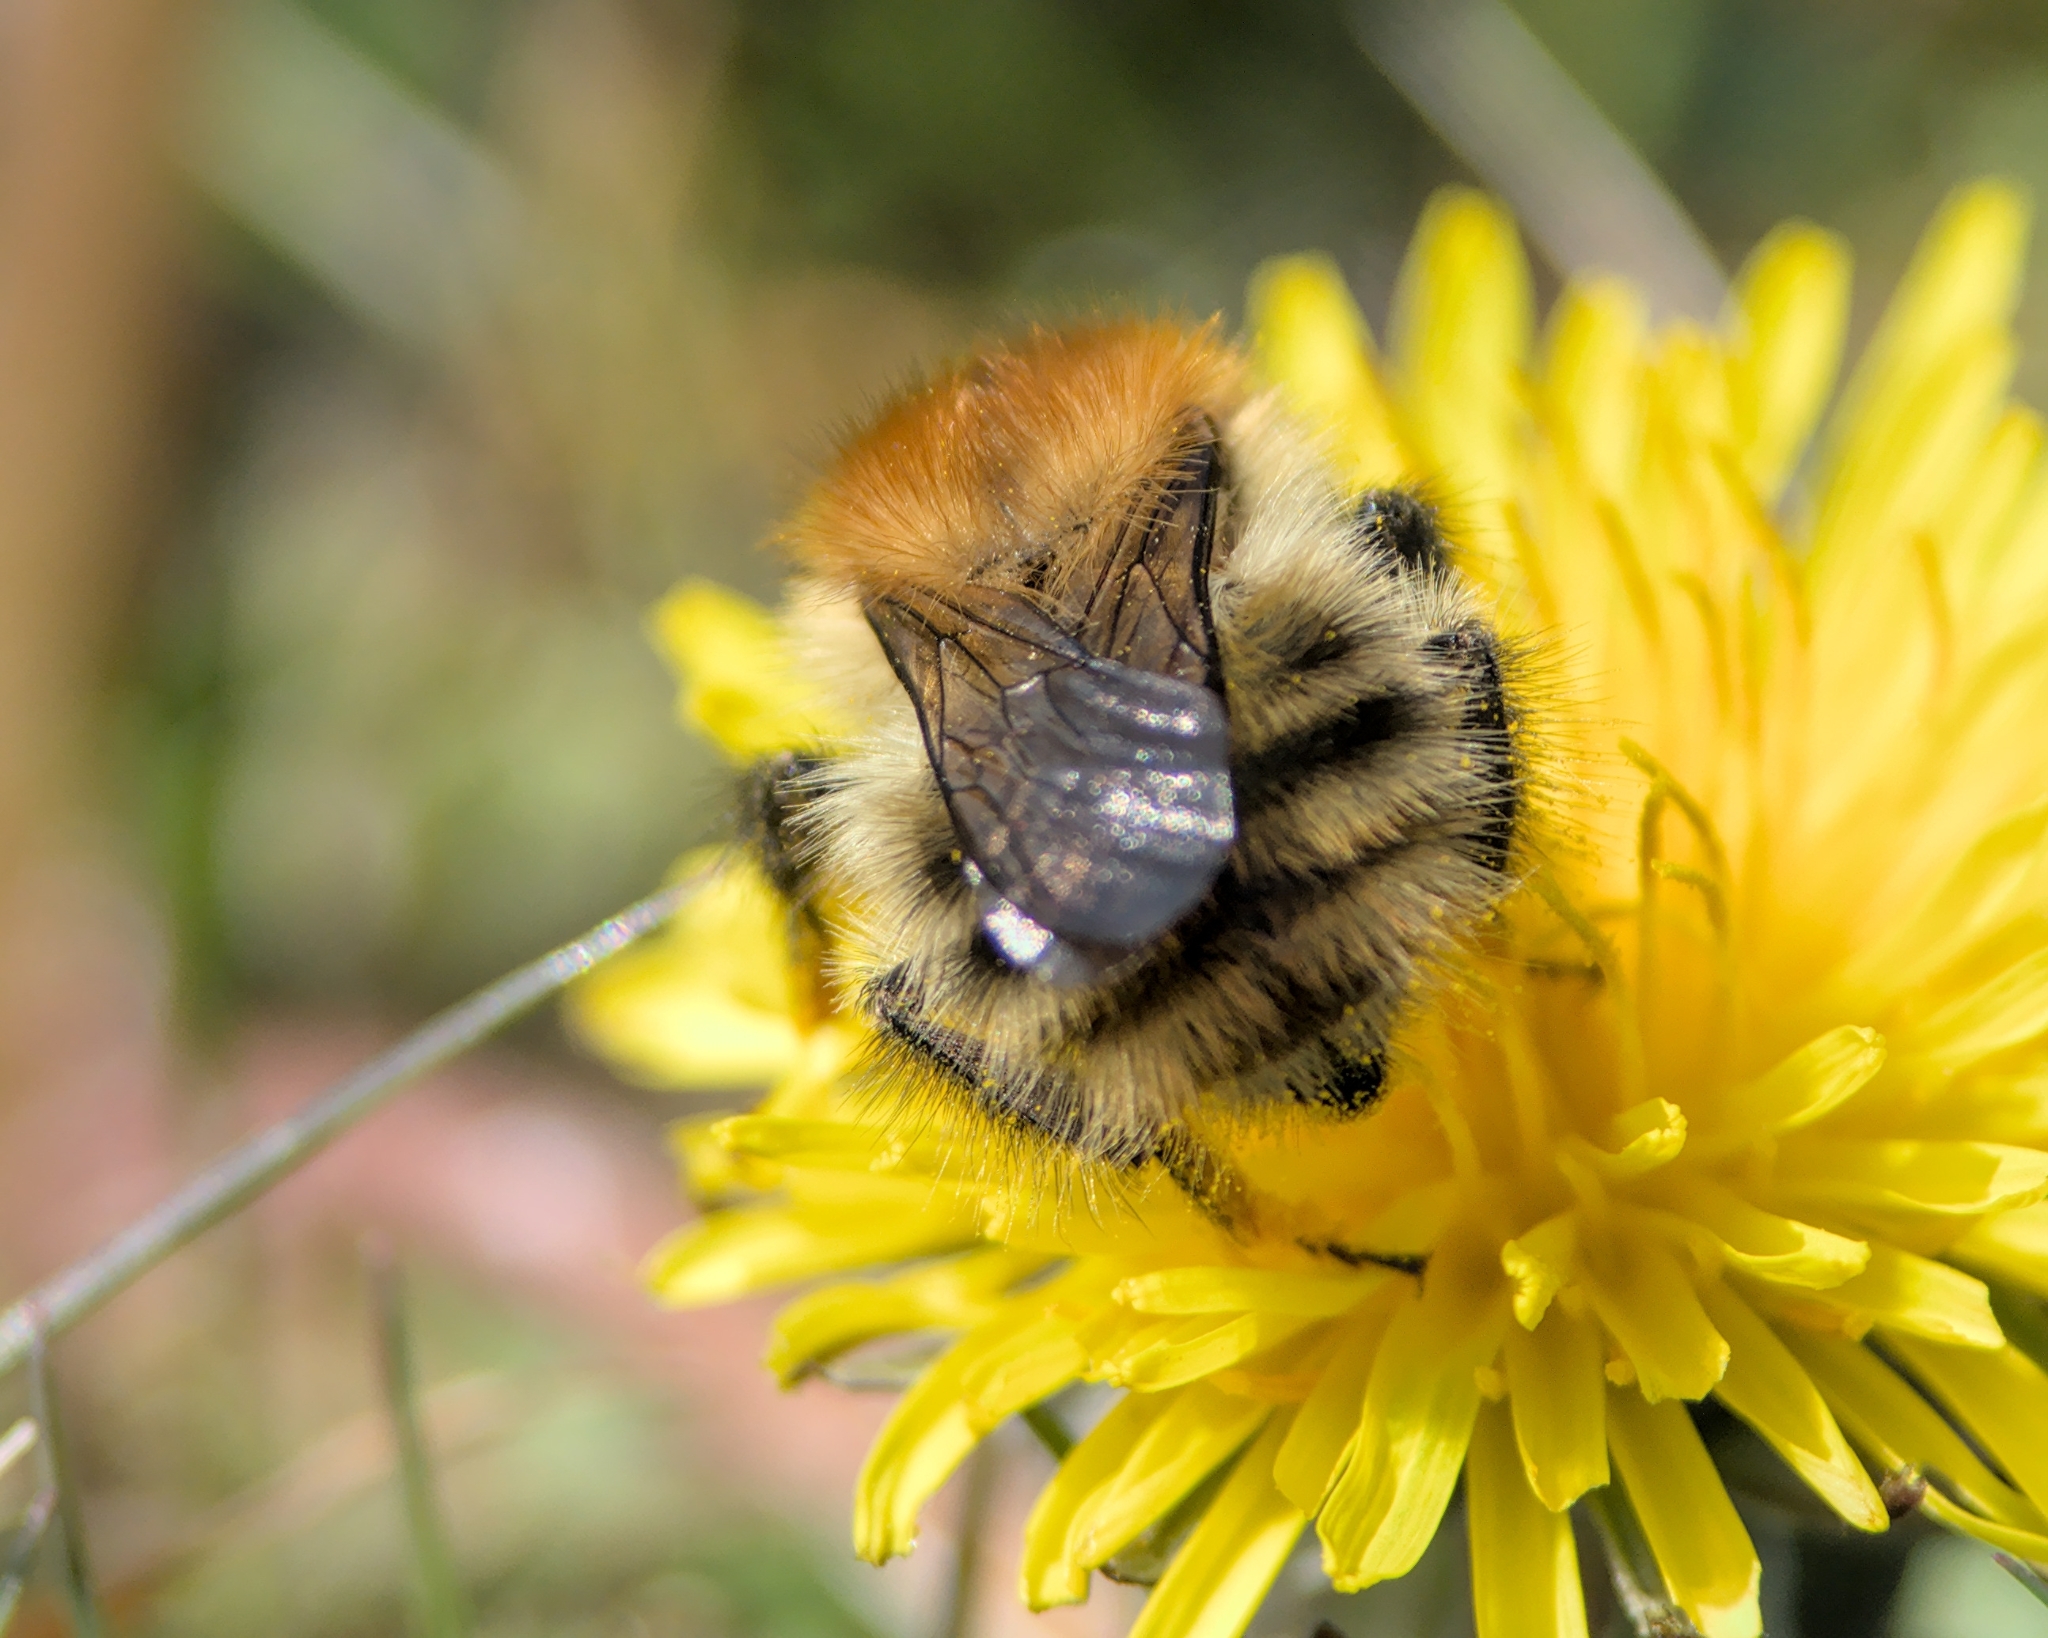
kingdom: Animalia
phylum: Arthropoda
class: Insecta
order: Hymenoptera
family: Apidae
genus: Bombus
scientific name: Bombus pascuorum
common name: Common carder bee
